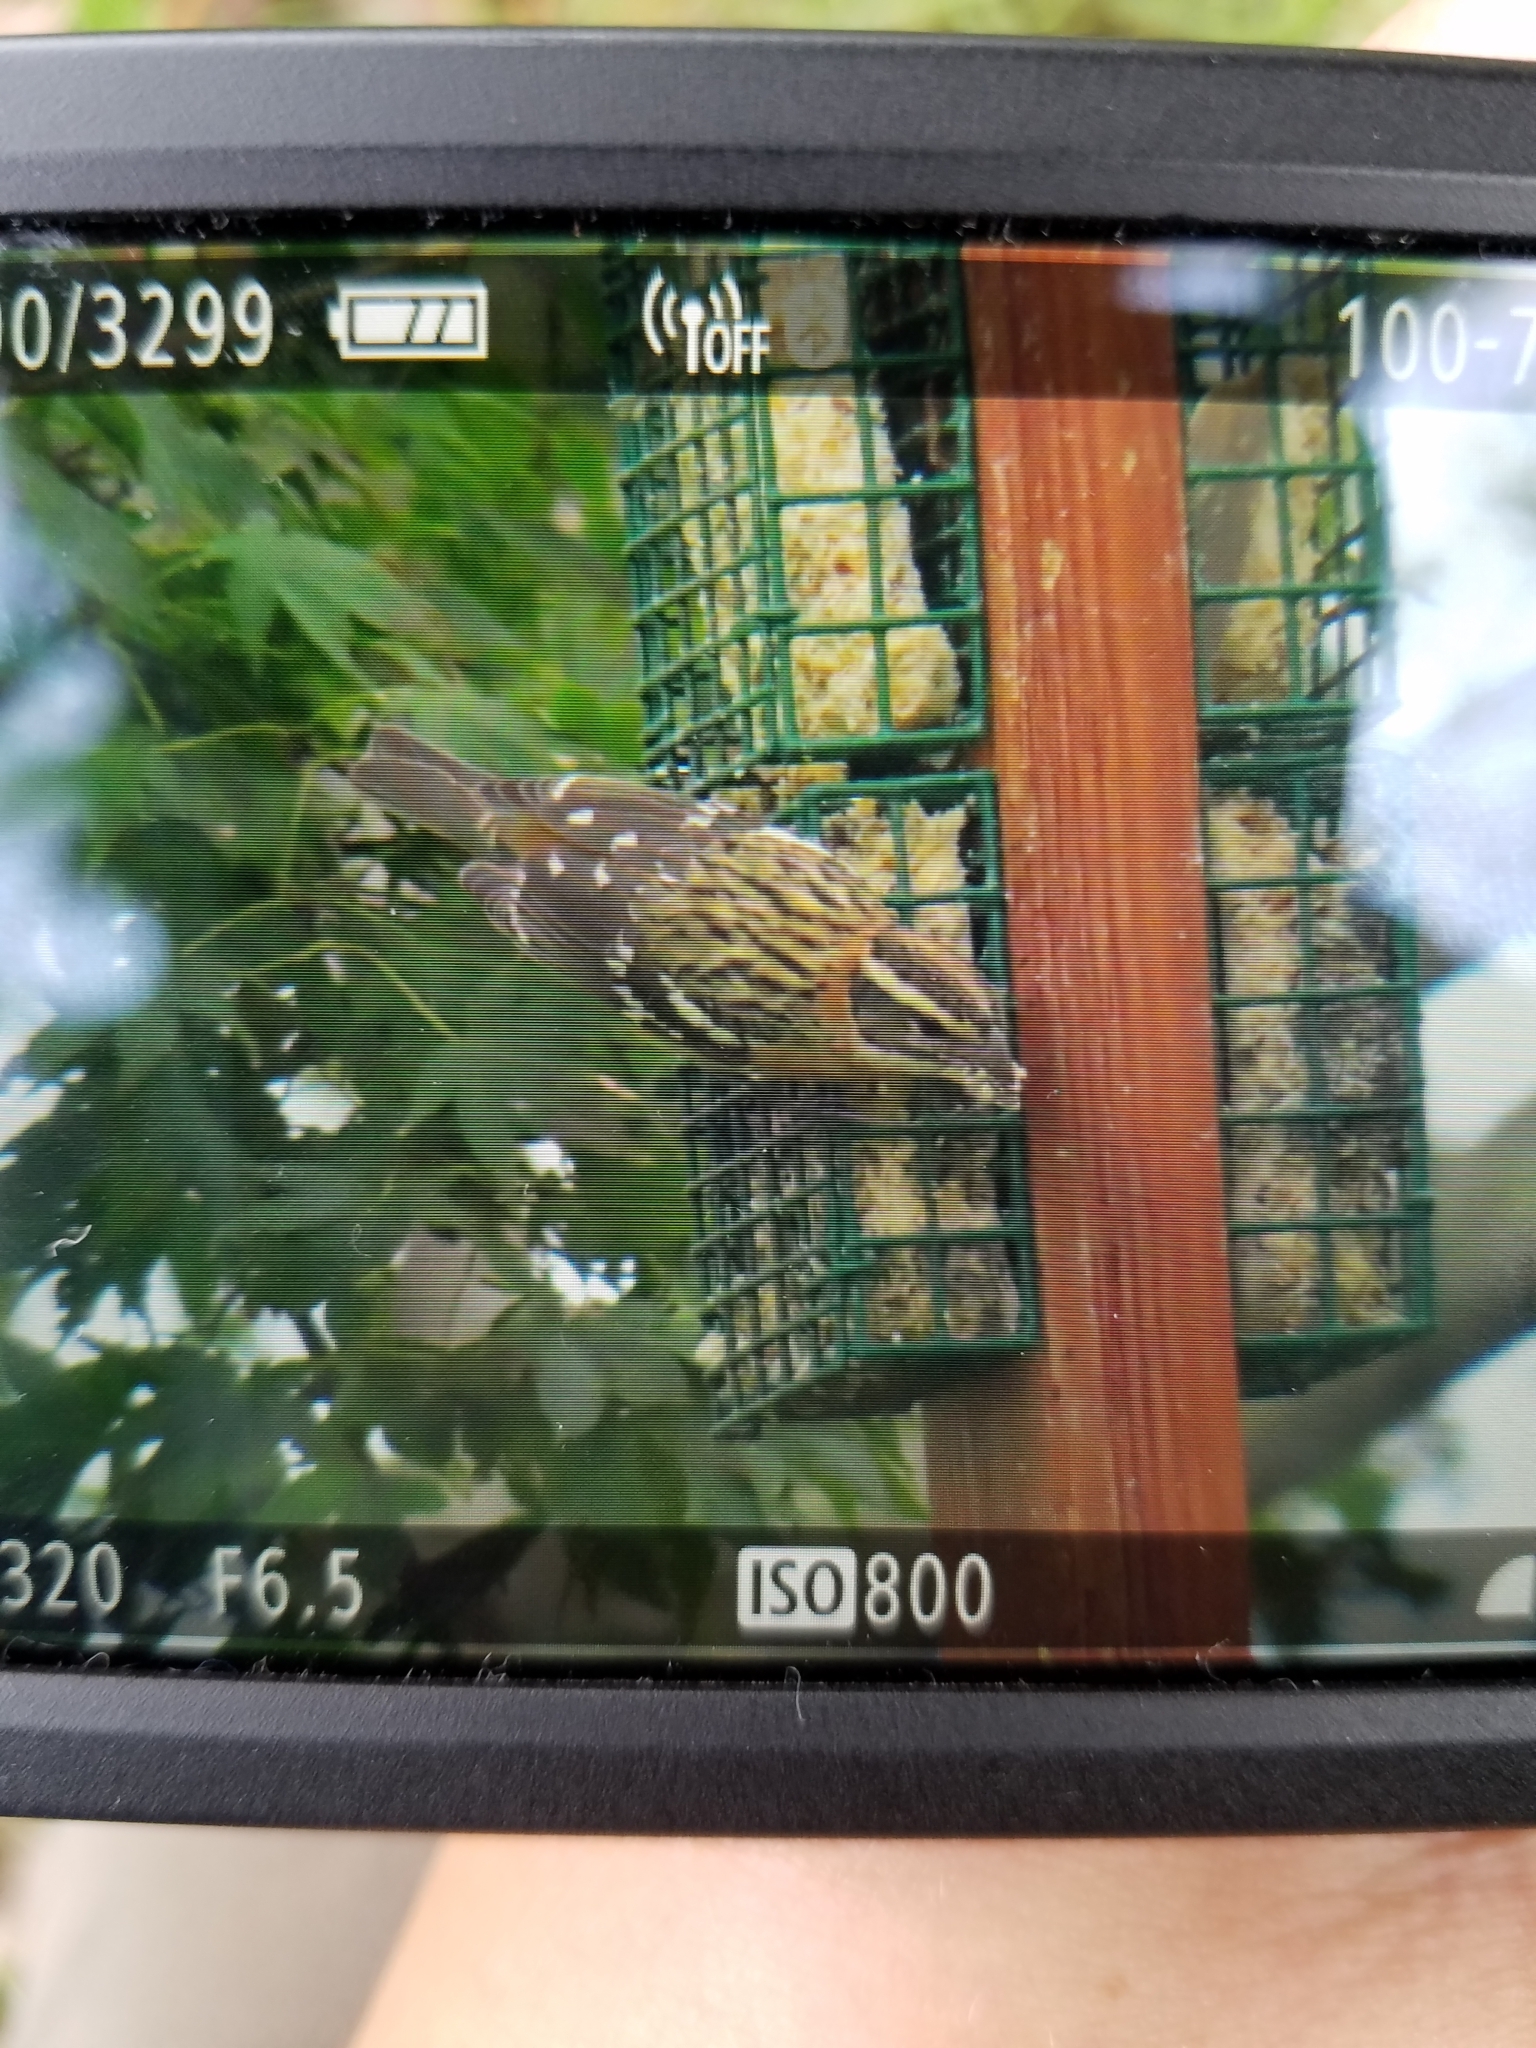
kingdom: Animalia
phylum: Chordata
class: Aves
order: Passeriformes
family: Cardinalidae
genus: Pheucticus
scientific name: Pheucticus melanocephalus
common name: Black-headed grosbeak
